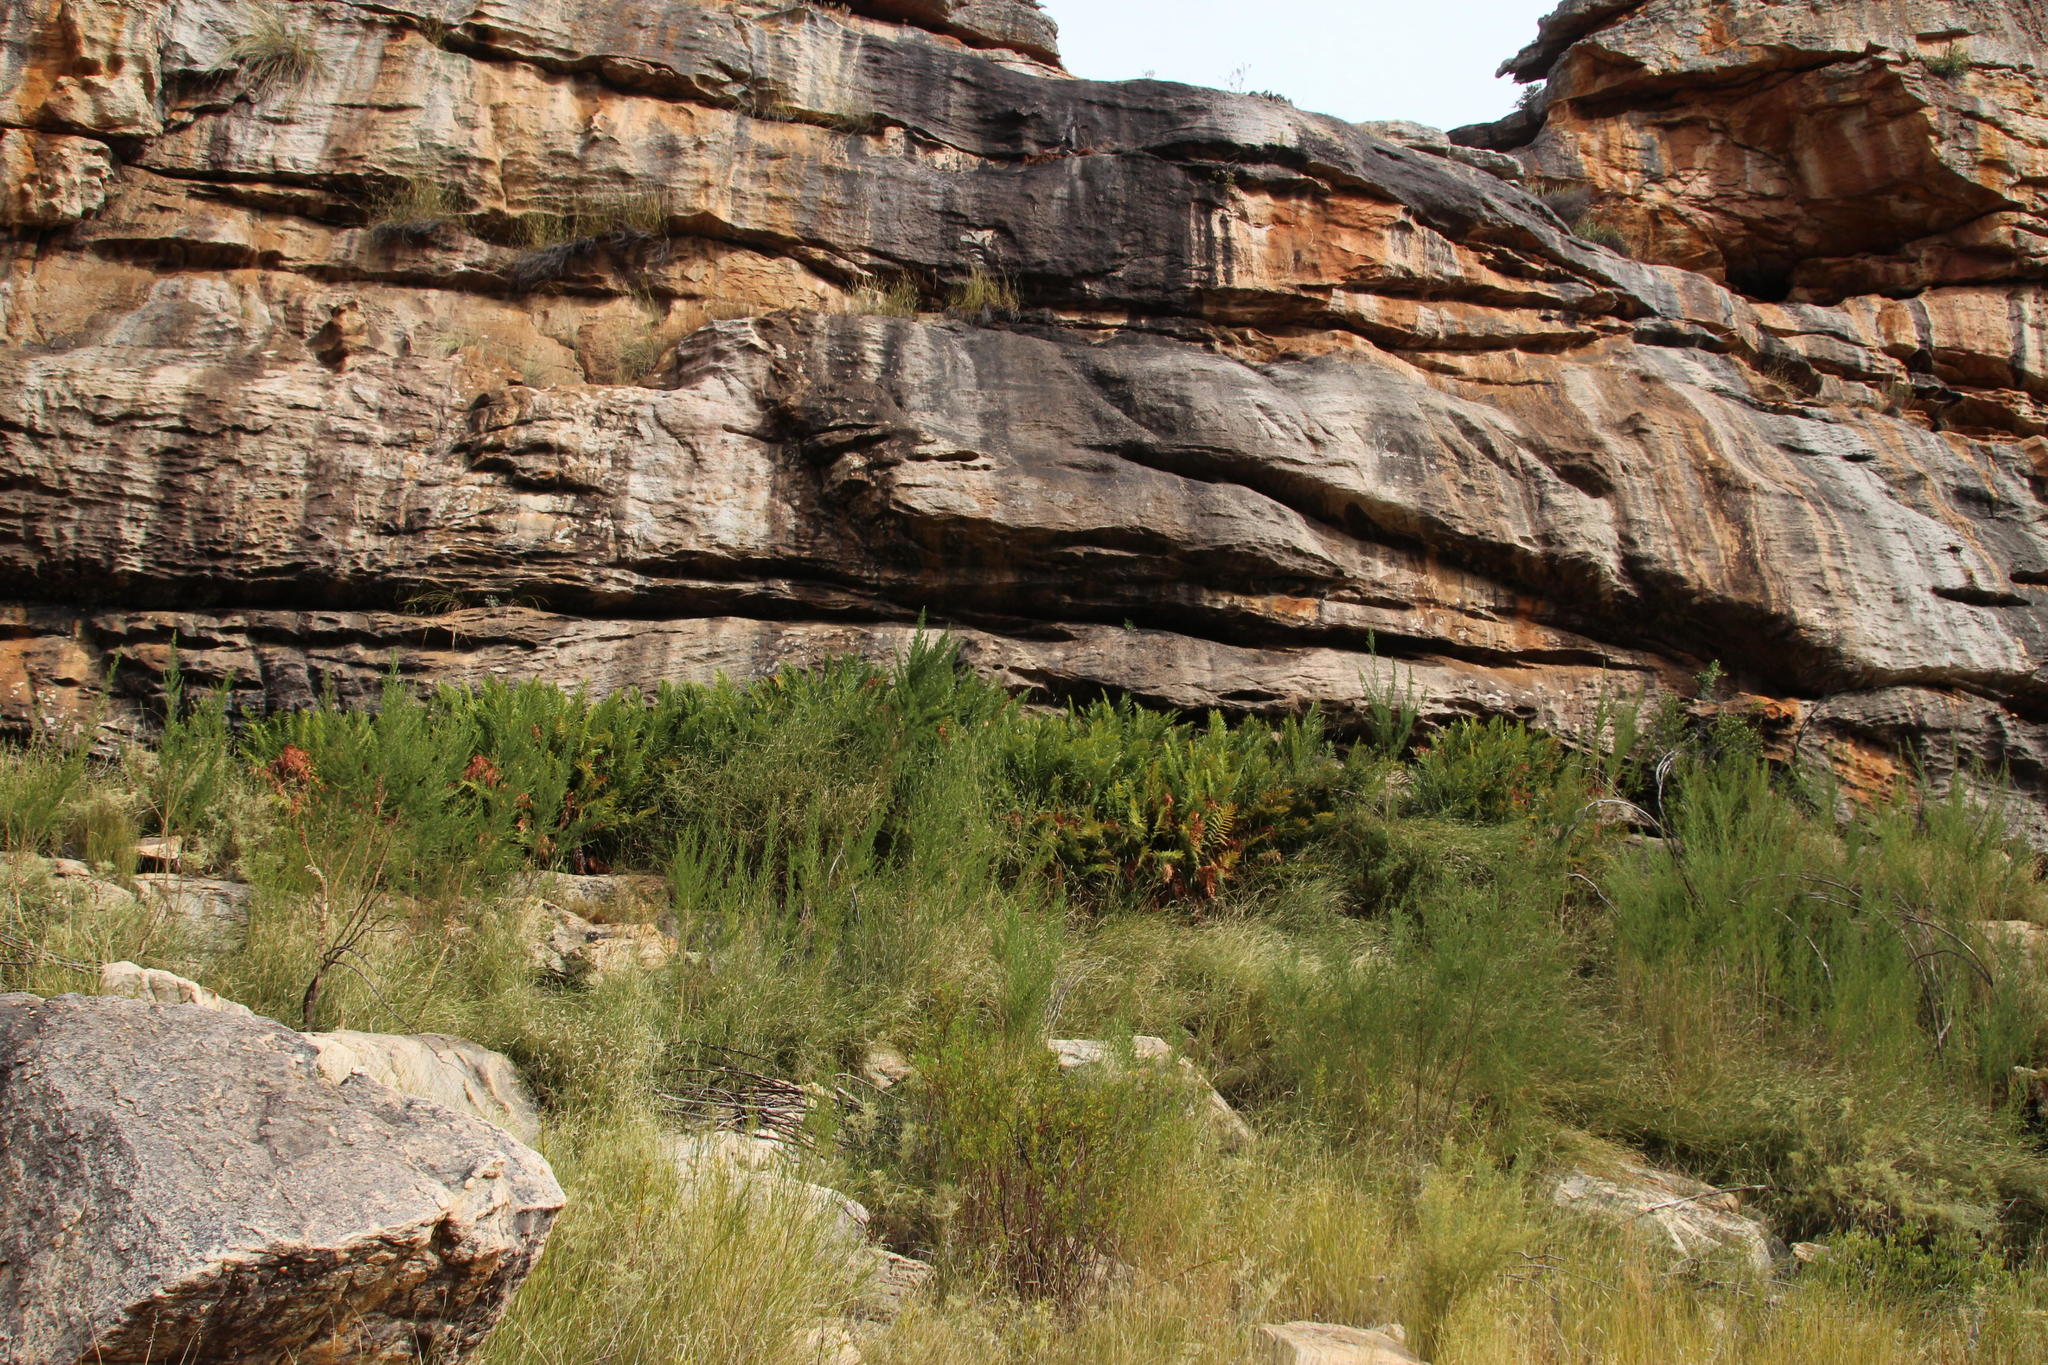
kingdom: Plantae
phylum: Tracheophyta
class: Polypodiopsida
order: Osmundales
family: Osmundaceae
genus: Todea
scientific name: Todea barbara
